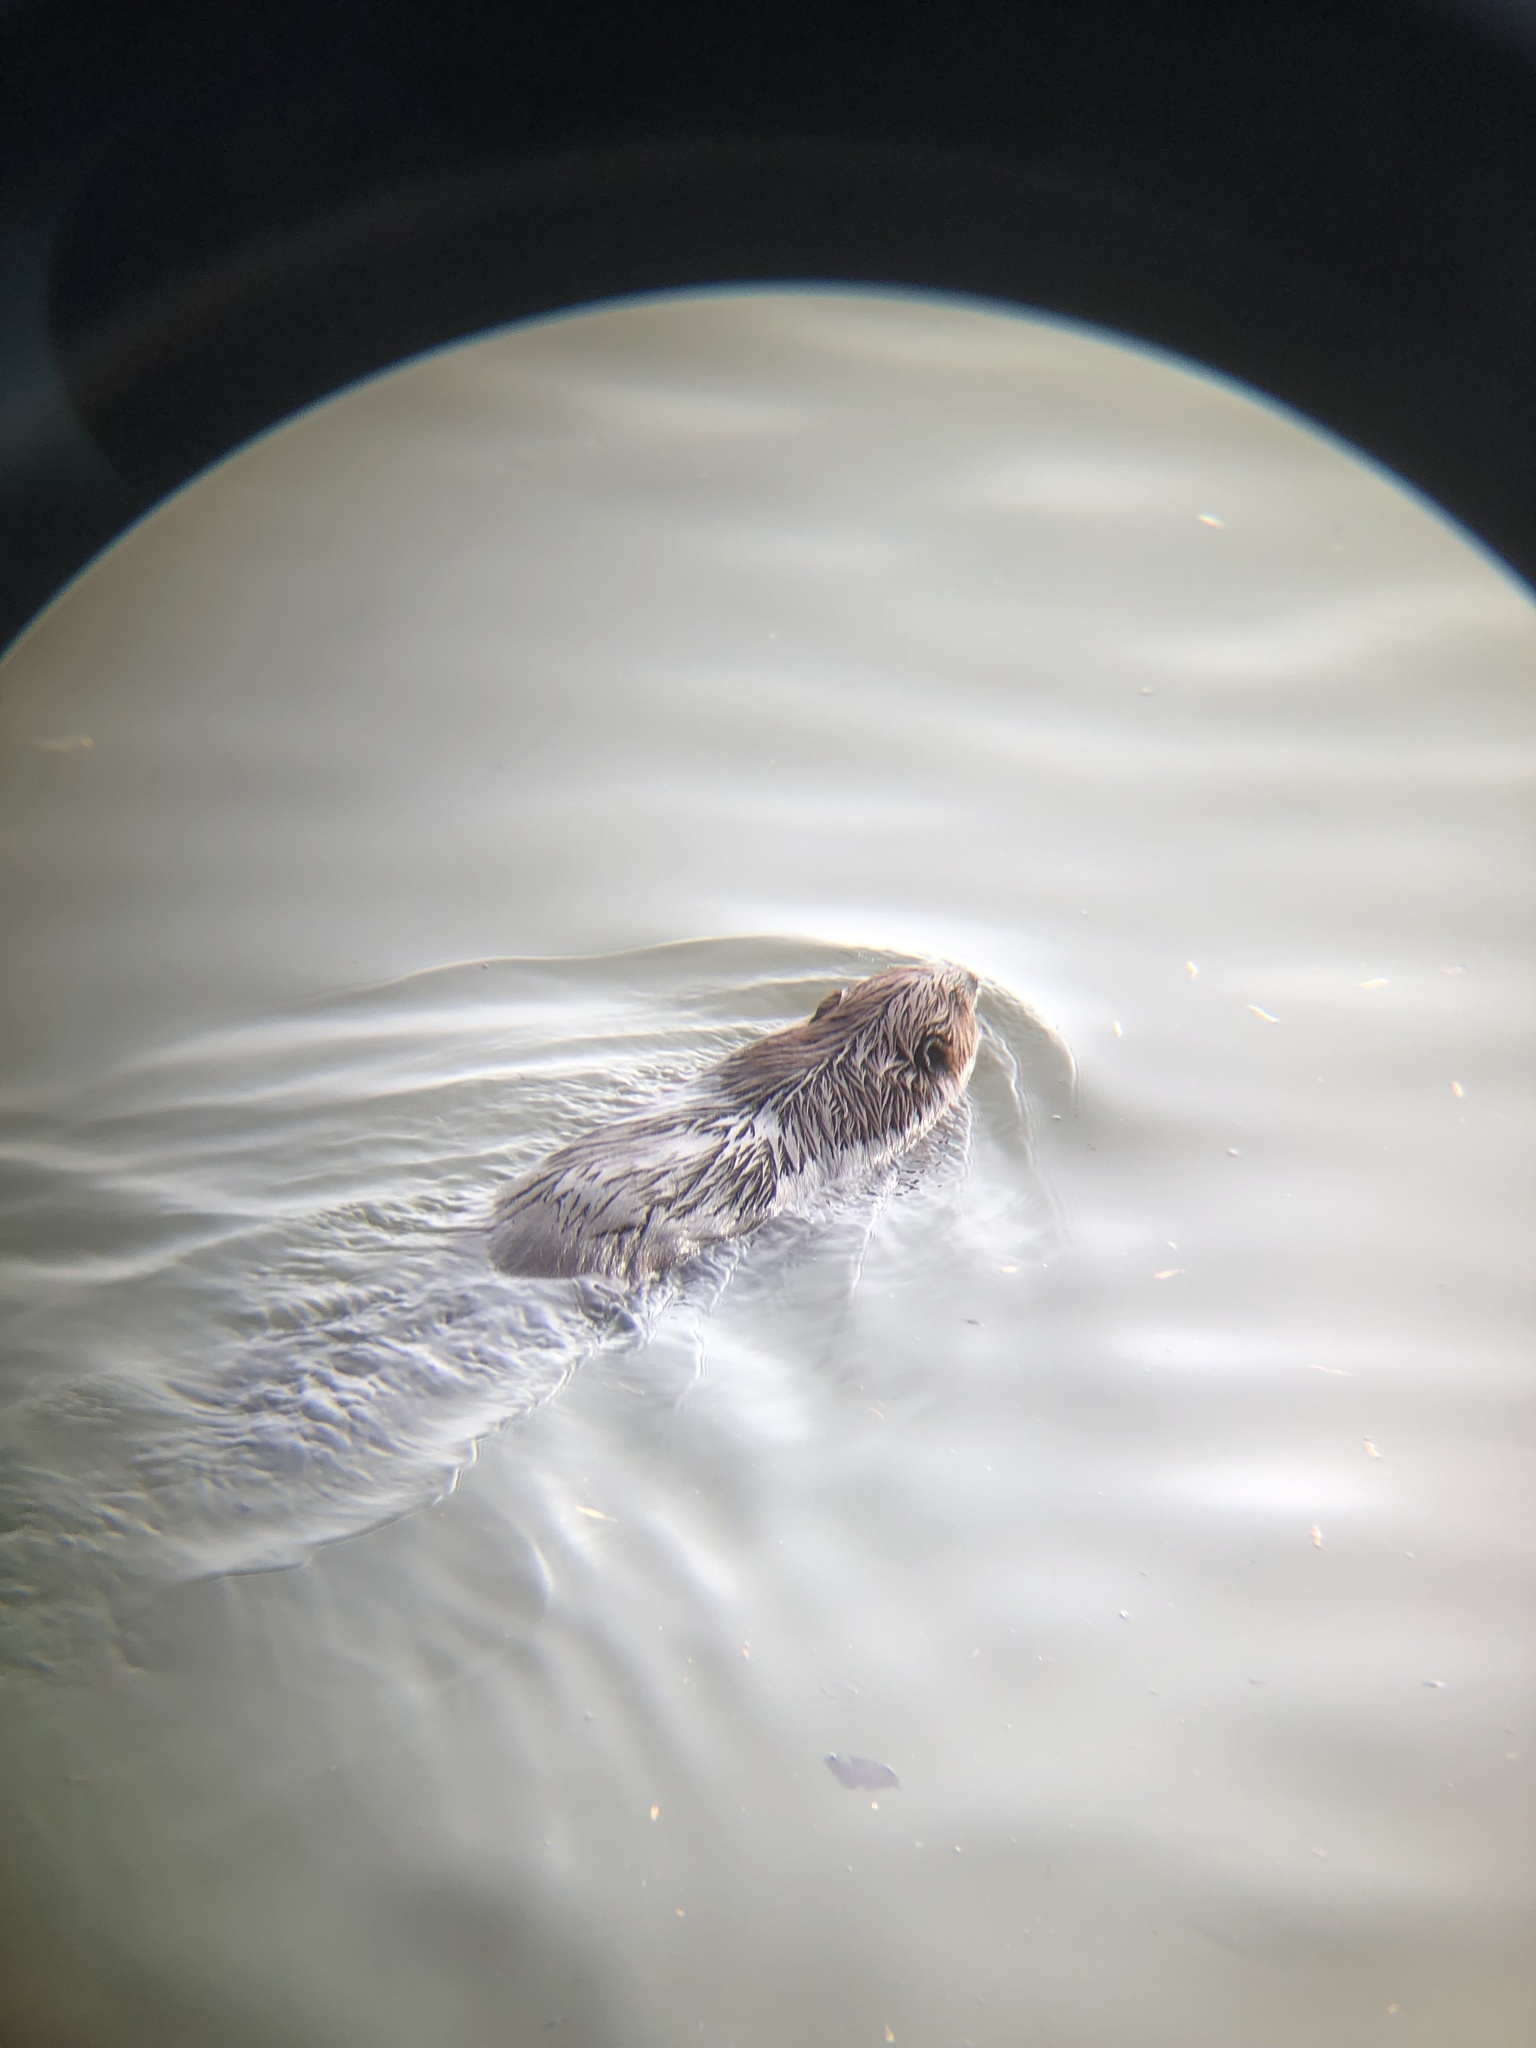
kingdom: Animalia
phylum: Chordata
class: Mammalia
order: Rodentia
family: Castoridae
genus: Castor
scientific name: Castor canadensis
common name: American beaver
